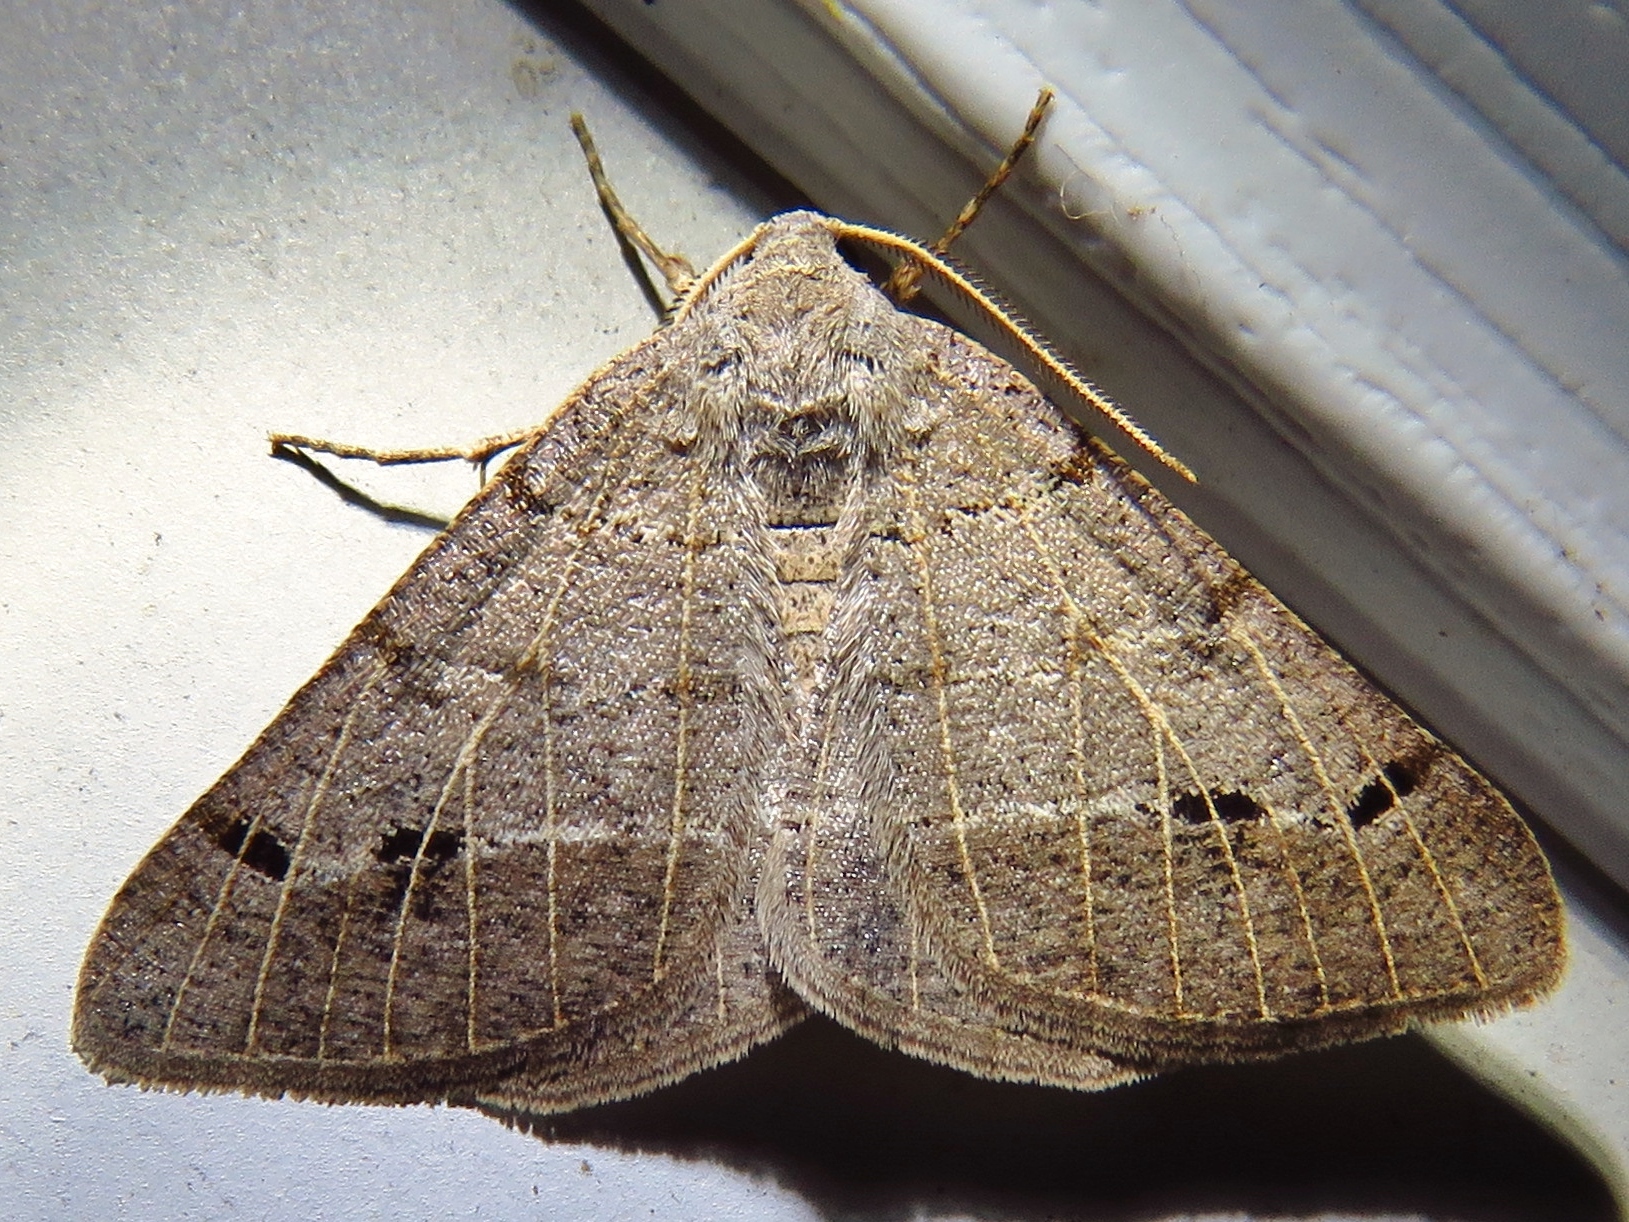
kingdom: Animalia
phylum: Arthropoda
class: Insecta
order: Lepidoptera
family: Geometridae
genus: Isturgia
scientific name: Isturgia dislocaria
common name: Pale-viened enconista
